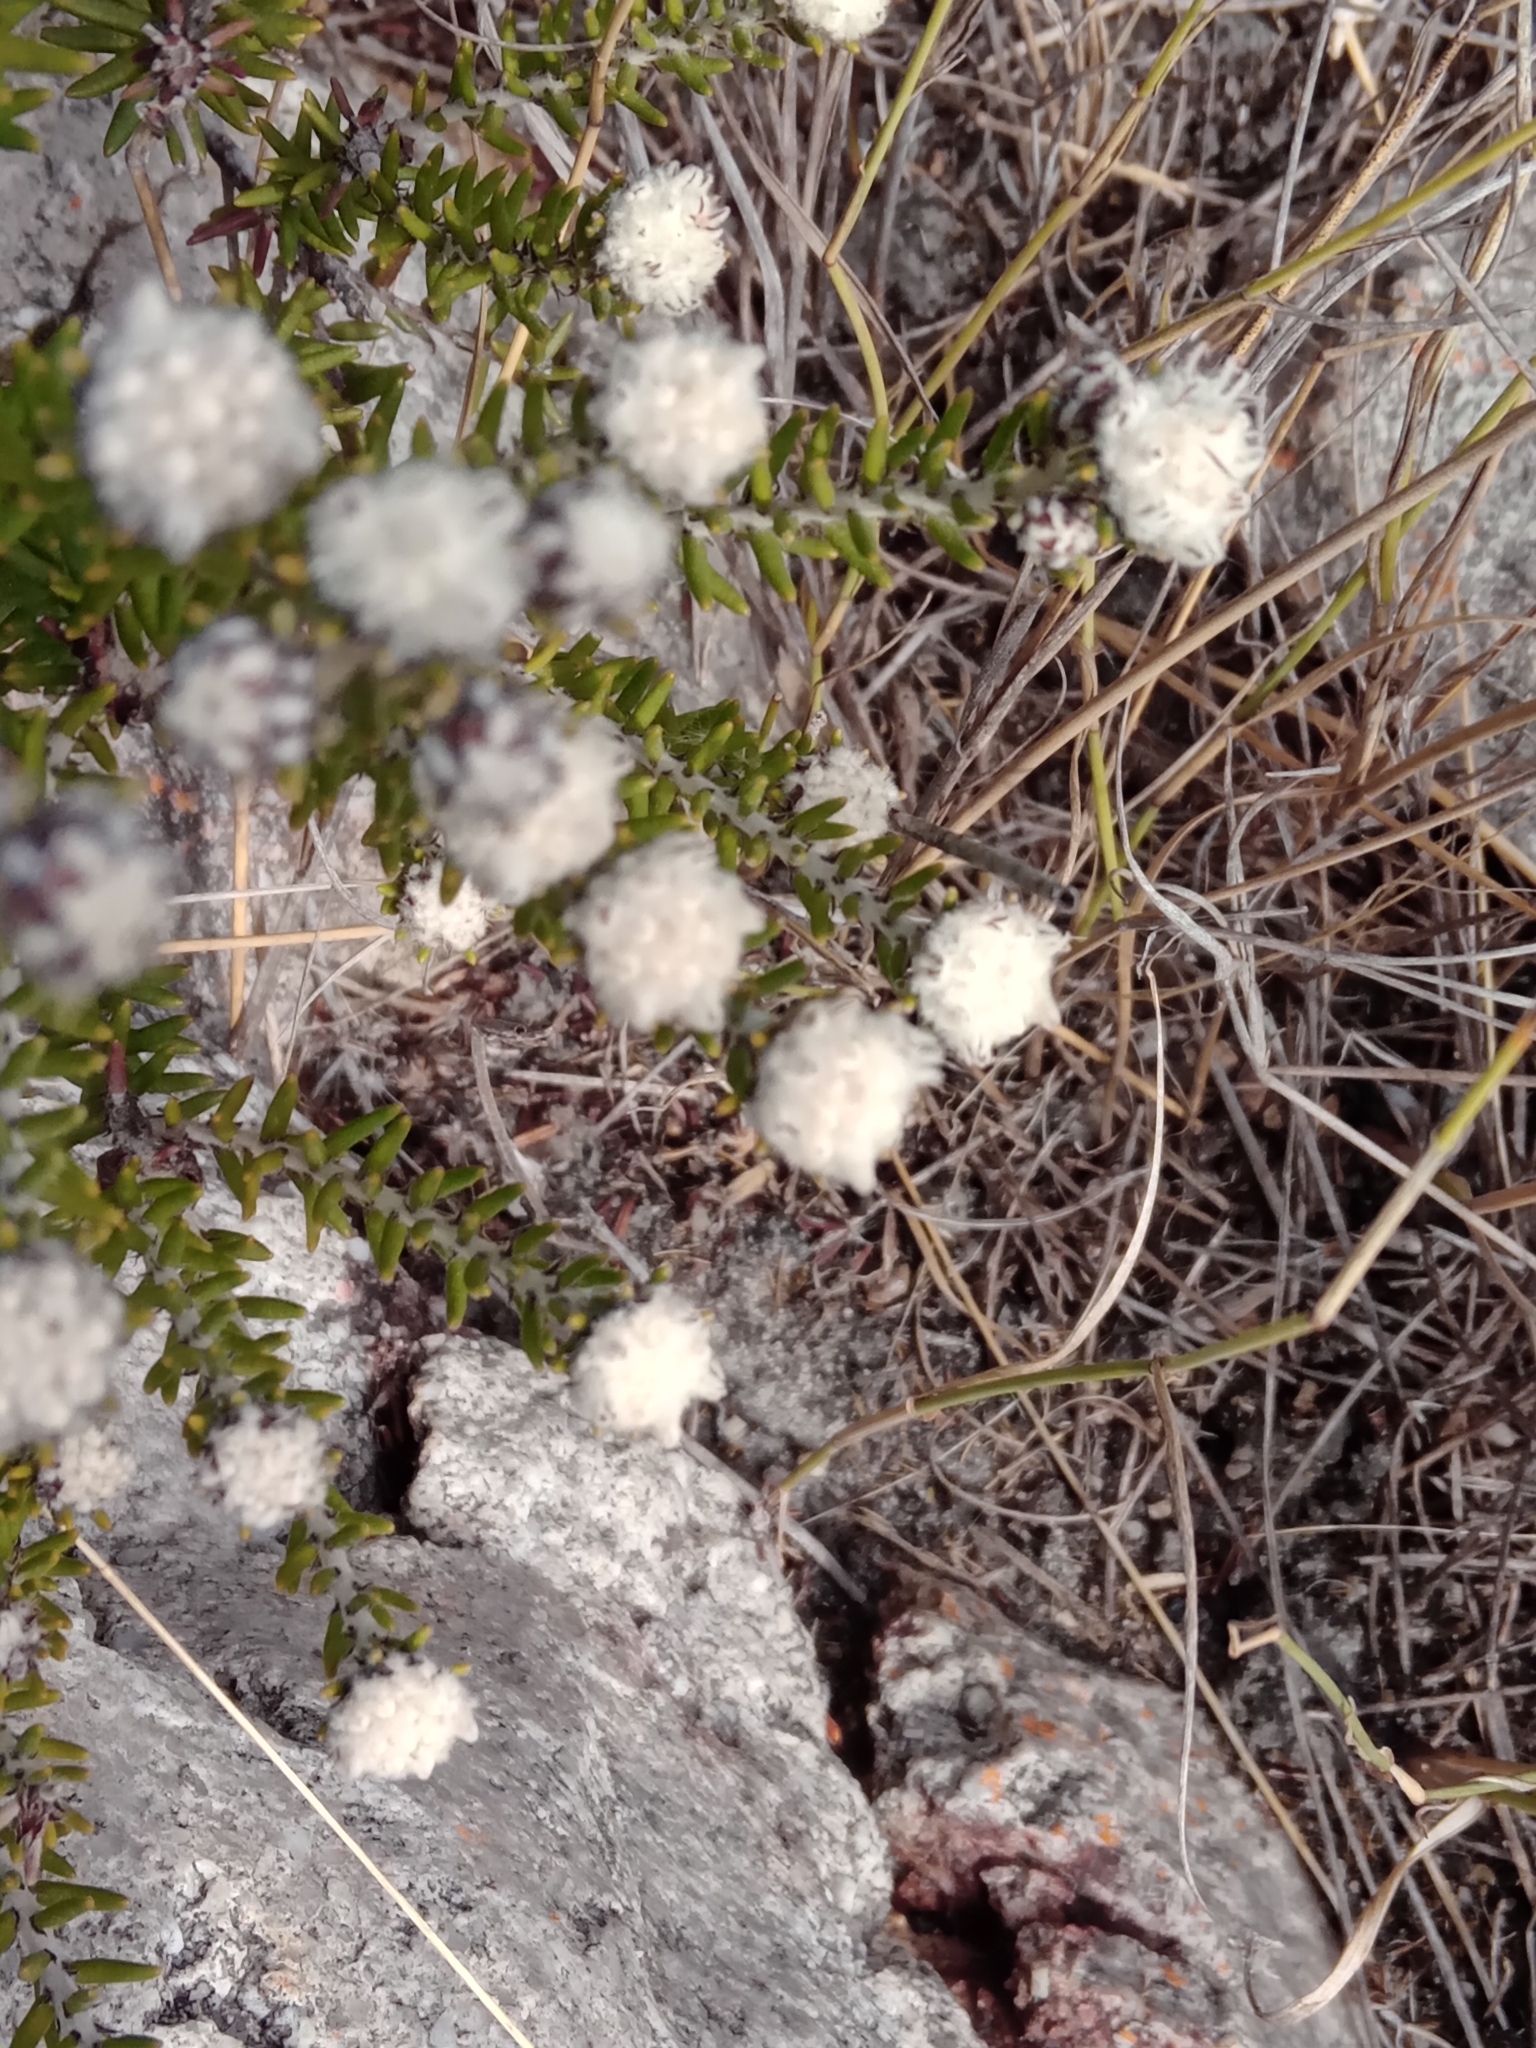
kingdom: Plantae
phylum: Tracheophyta
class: Magnoliopsida
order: Rosales
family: Rhamnaceae
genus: Trichocephalus
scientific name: Trichocephalus stipularis
